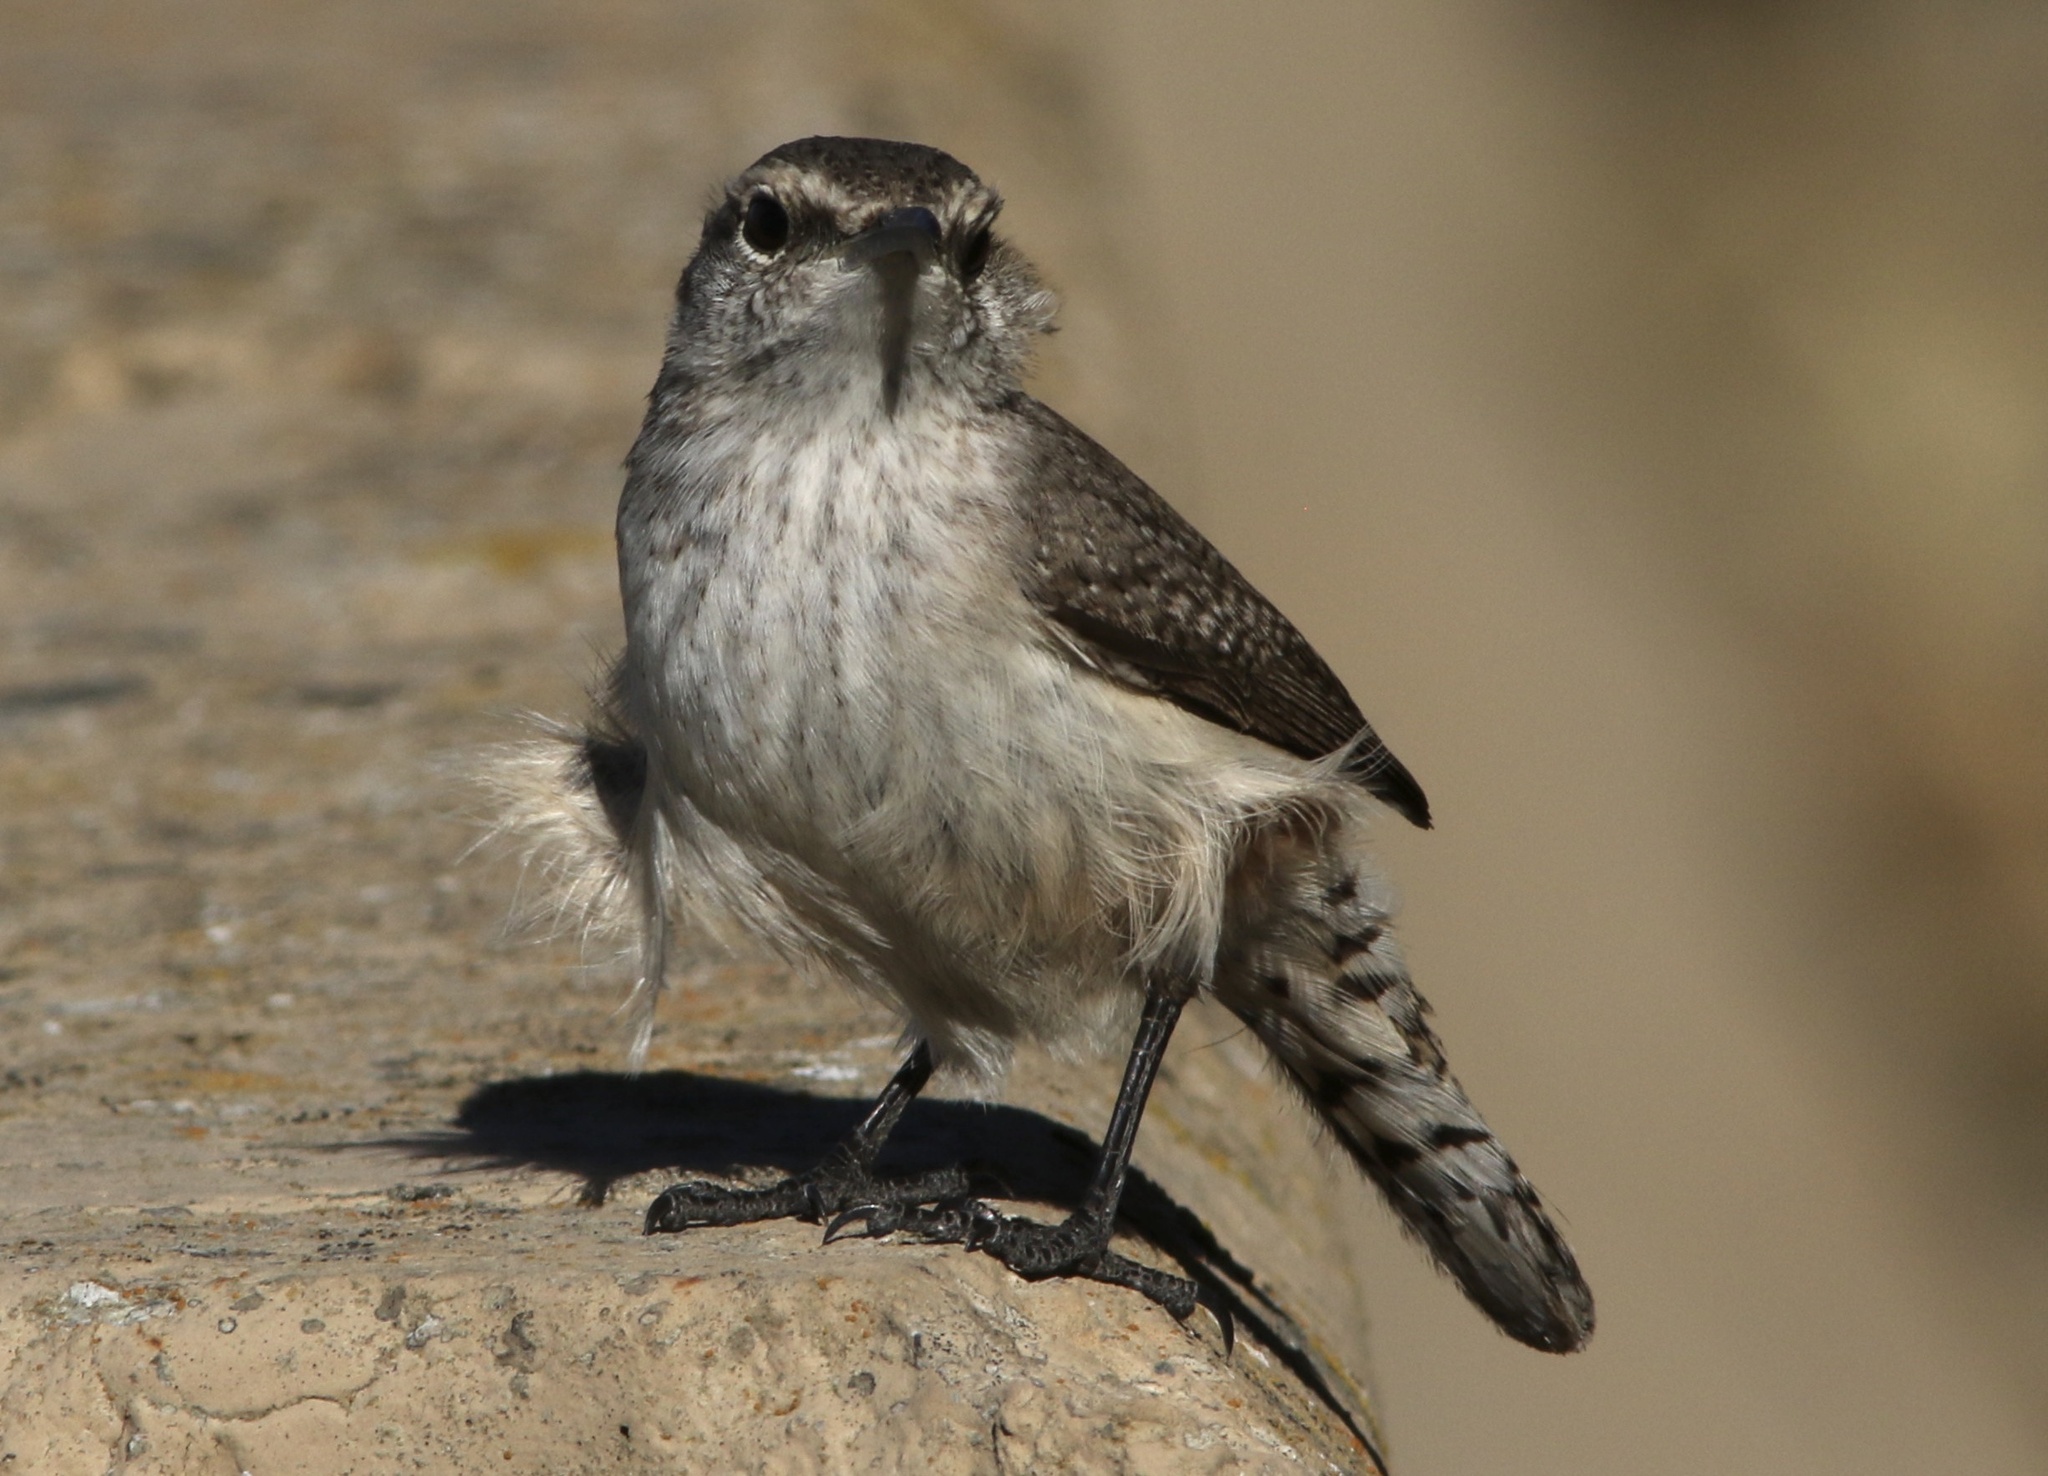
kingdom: Animalia
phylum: Chordata
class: Aves
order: Passeriformes
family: Troglodytidae
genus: Salpinctes
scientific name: Salpinctes obsoletus
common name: Rock wren
